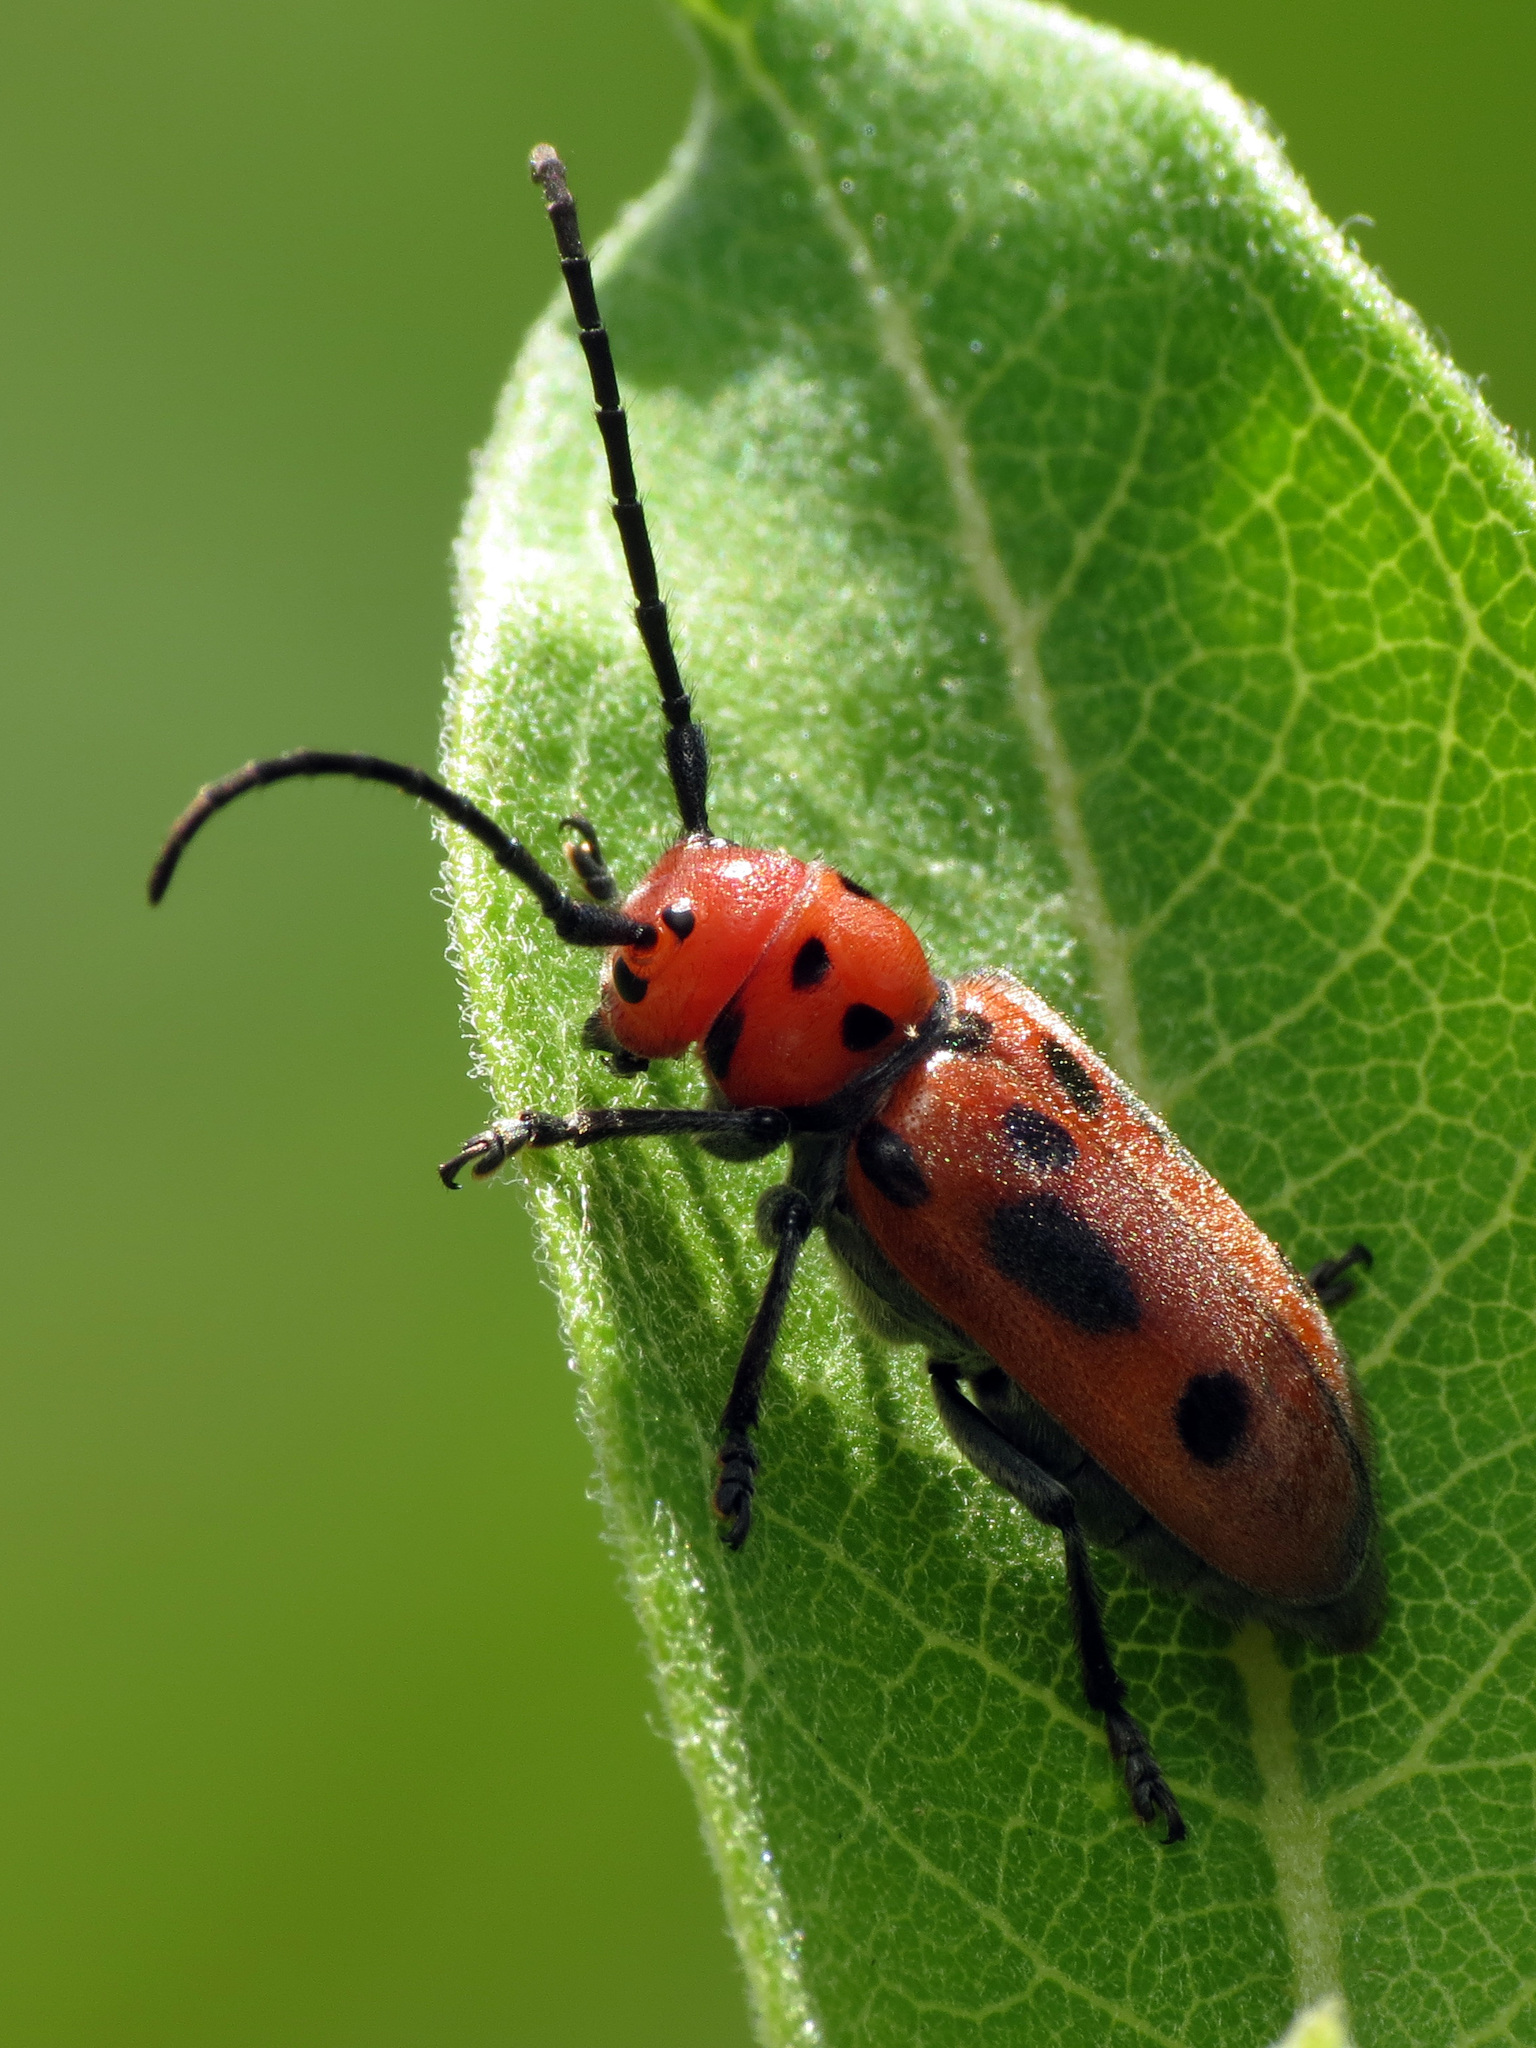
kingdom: Animalia
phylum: Arthropoda
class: Insecta
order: Coleoptera
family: Cerambycidae
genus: Tetraopes
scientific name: Tetraopes tetrophthalmus
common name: Red milkweed beetle
